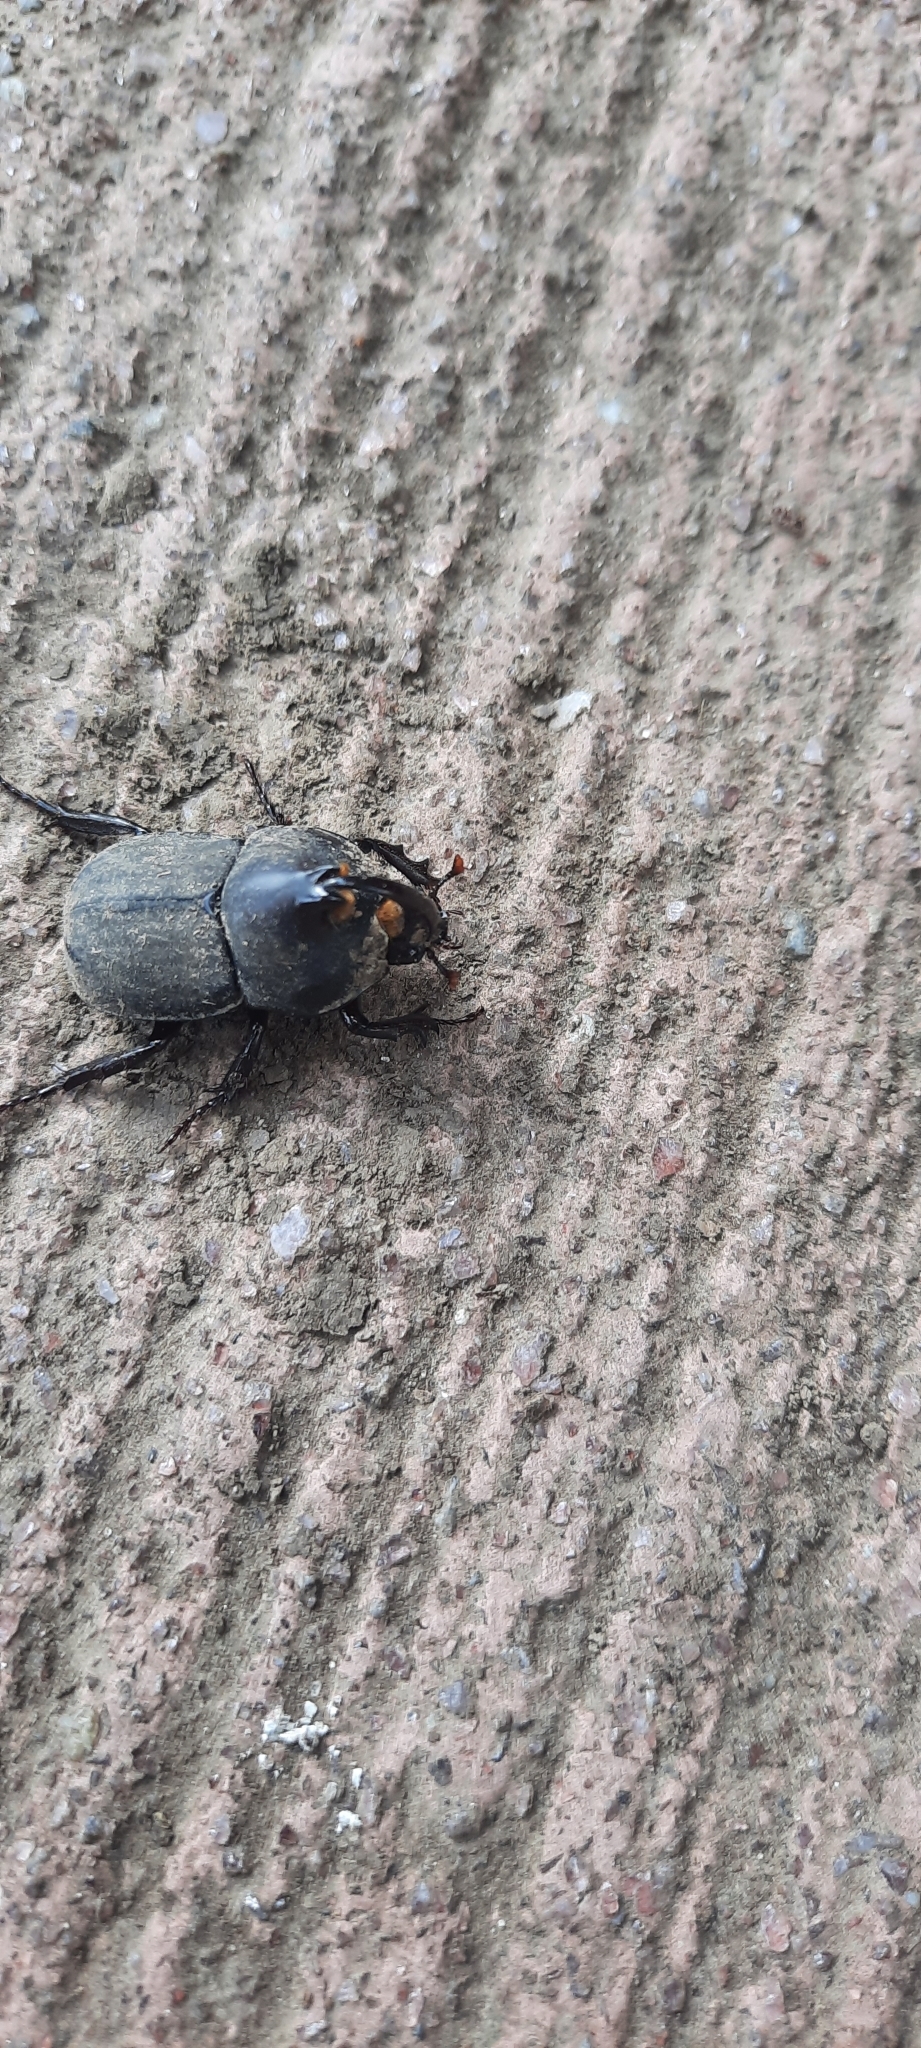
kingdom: Animalia
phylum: Arthropoda
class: Insecta
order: Coleoptera
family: Scarabaeidae
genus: Diloboderus
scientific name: Diloboderus abderus
